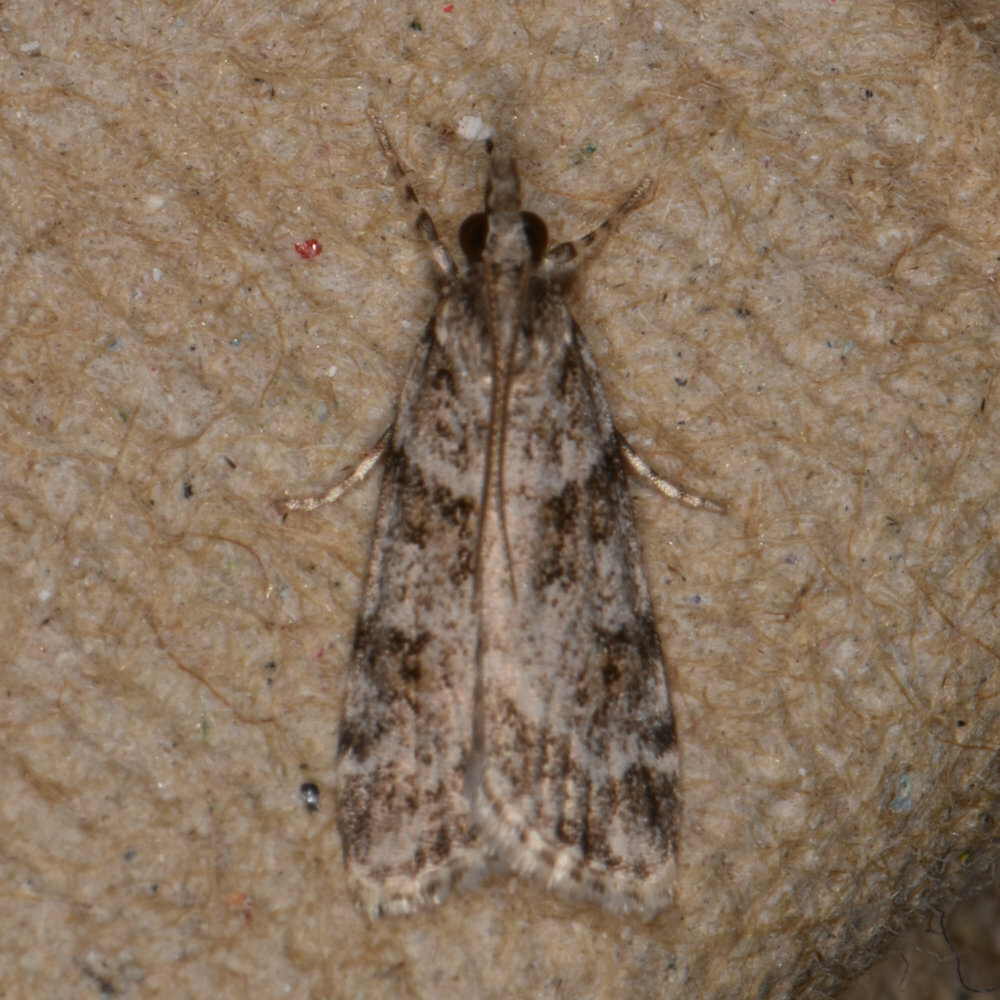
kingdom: Animalia
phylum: Arthropoda
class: Insecta
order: Lepidoptera
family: Crambidae
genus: Scoparia
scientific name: Scoparia biplagialis
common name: Double-striped scoparia moth
